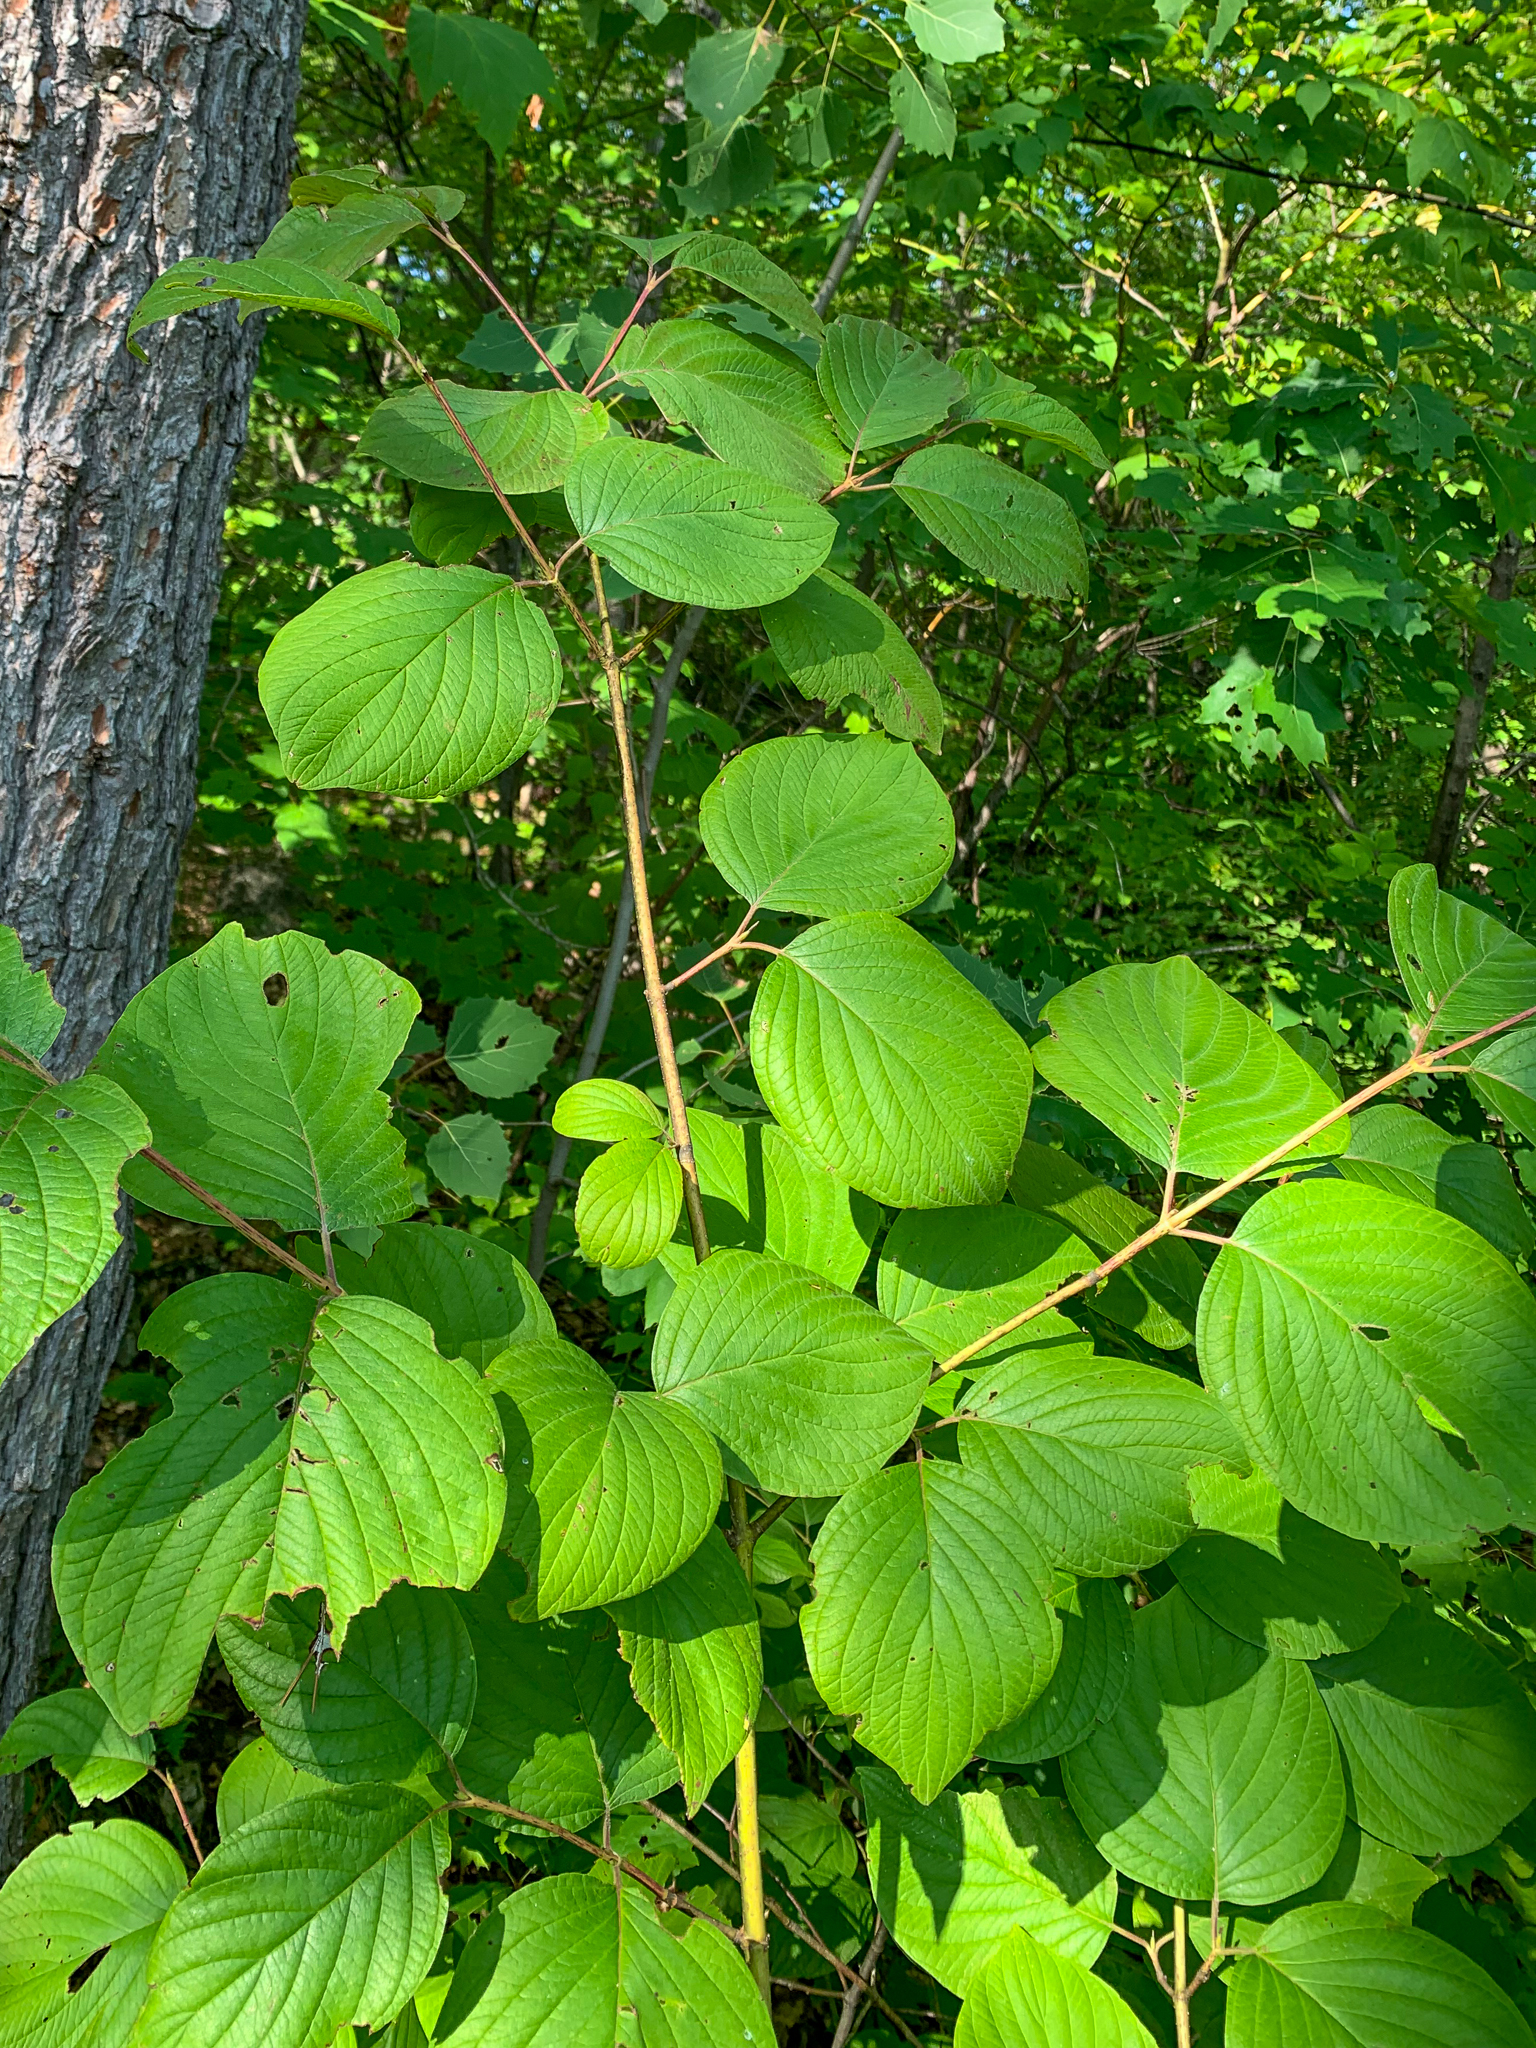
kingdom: Plantae
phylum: Tracheophyta
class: Magnoliopsida
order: Cornales
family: Cornaceae
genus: Cornus
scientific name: Cornus rugosa
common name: Round-leaf dogwood
